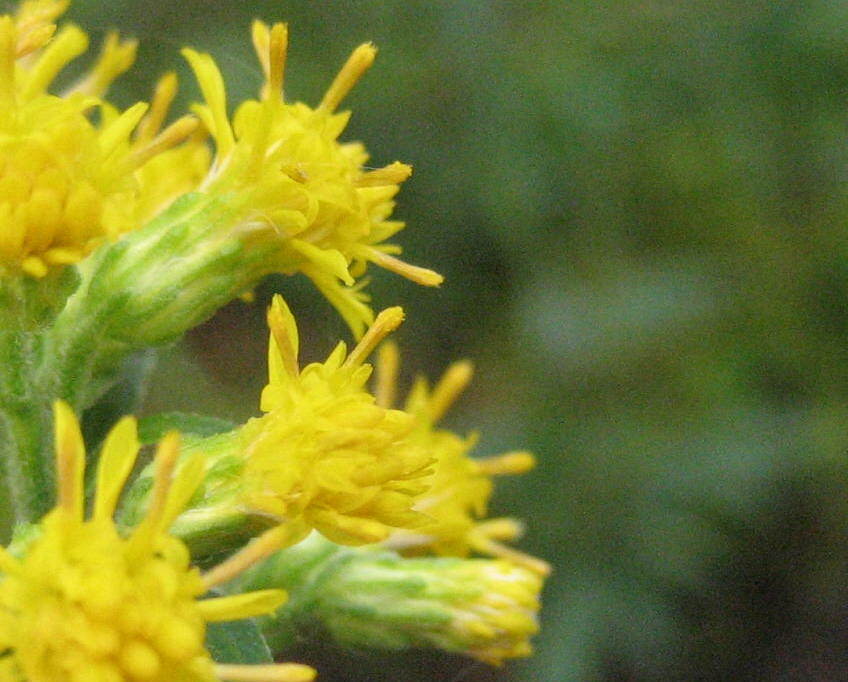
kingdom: Plantae
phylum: Tracheophyta
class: Magnoliopsida
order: Asterales
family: Asteraceae
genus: Solidago
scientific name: Solidago hispida
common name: Hairy goldenrod
